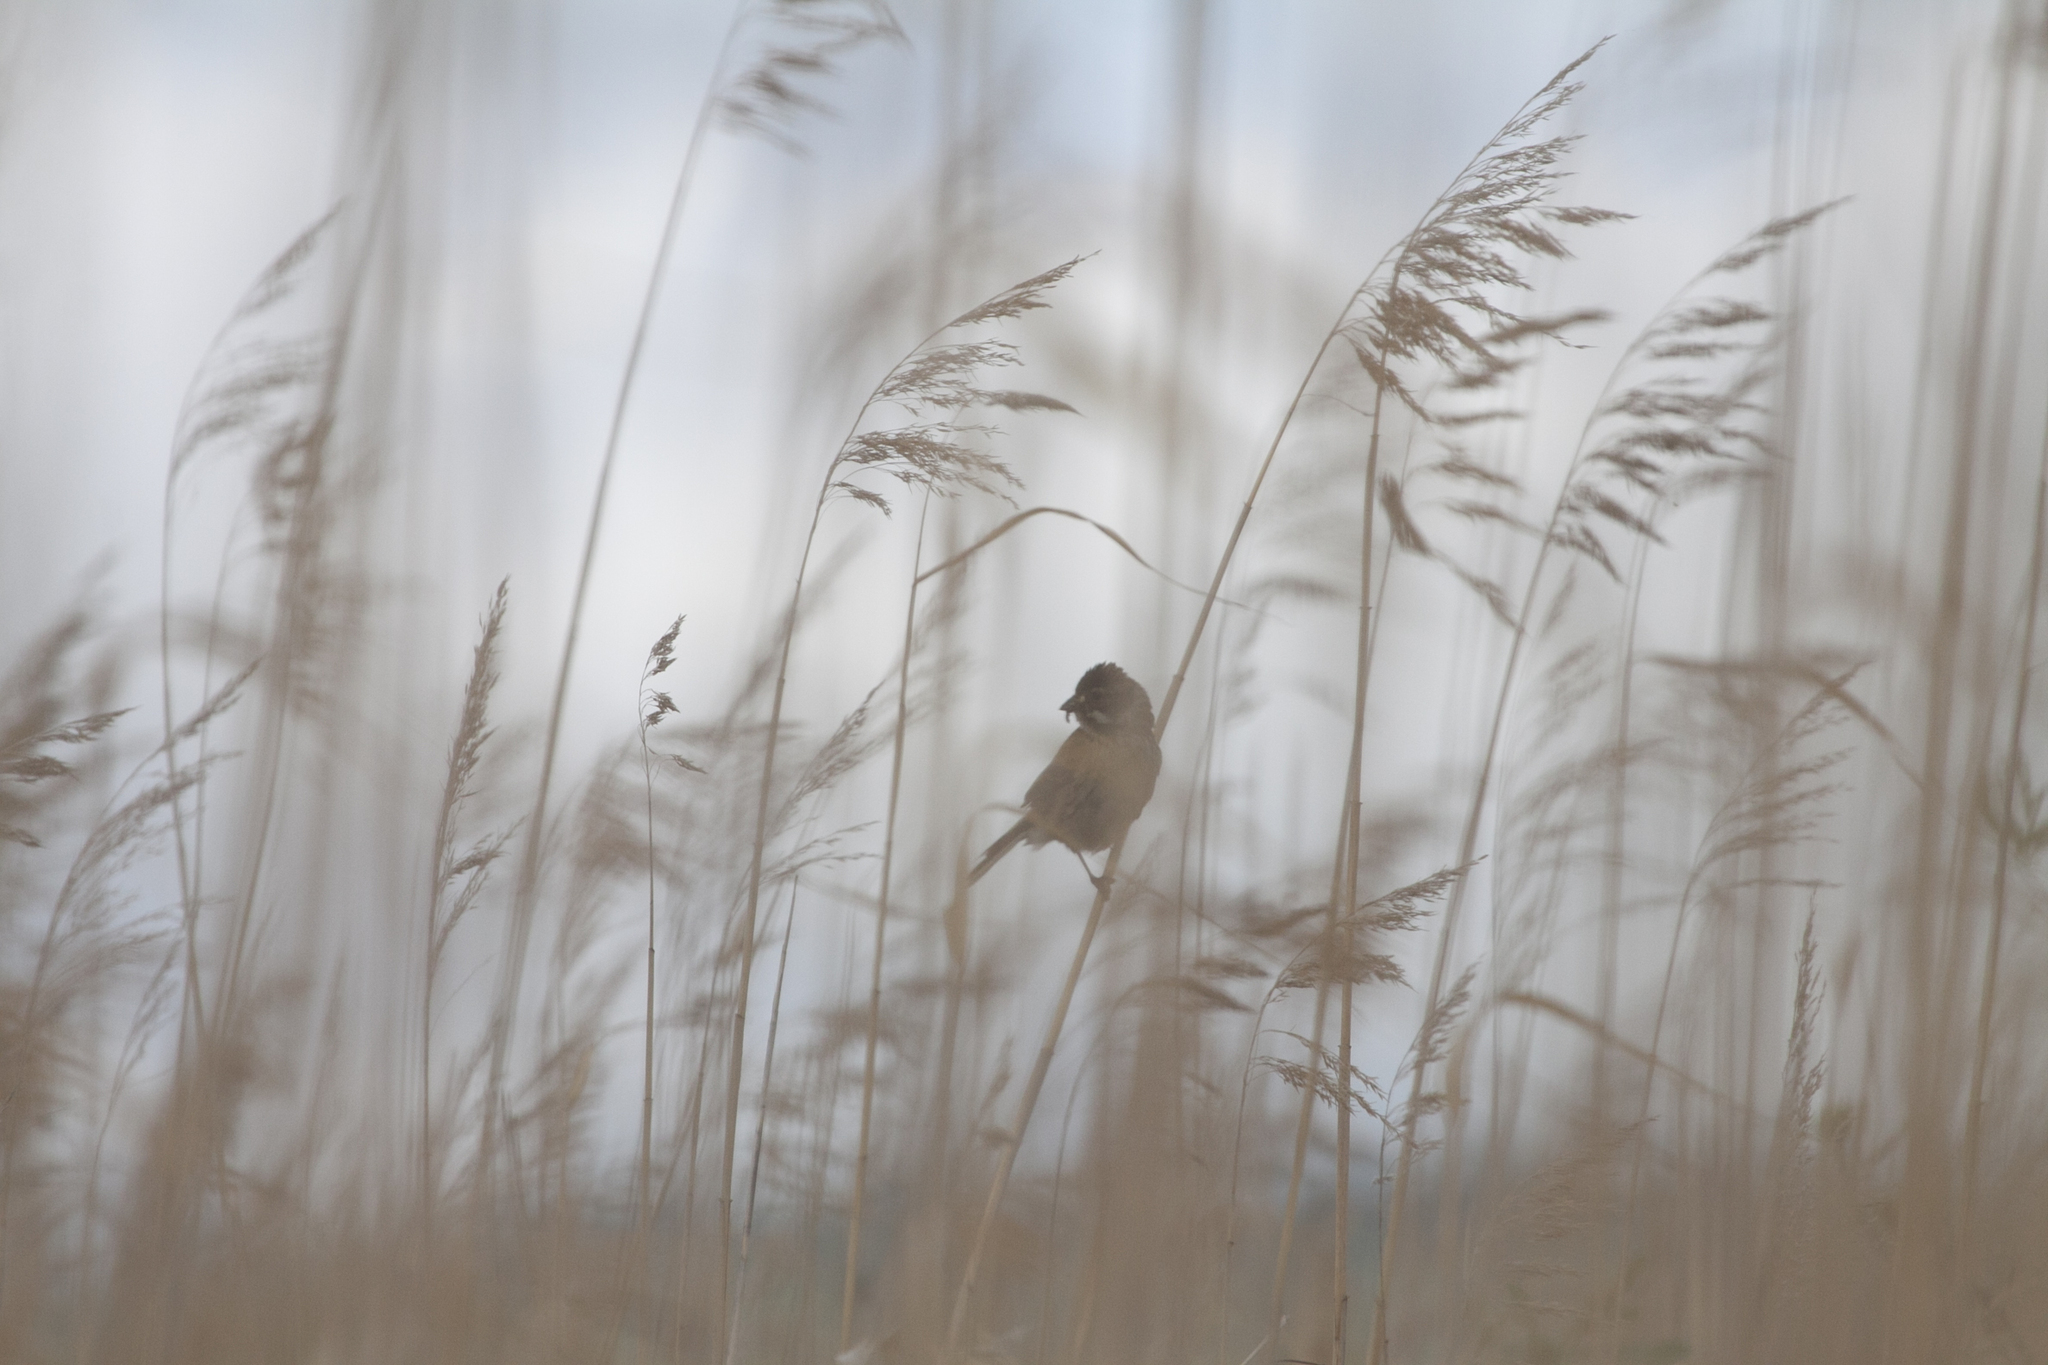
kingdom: Animalia
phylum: Chordata
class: Aves
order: Passeriformes
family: Emberizidae
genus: Emberiza
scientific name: Emberiza schoeniclus
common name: Reed bunting
